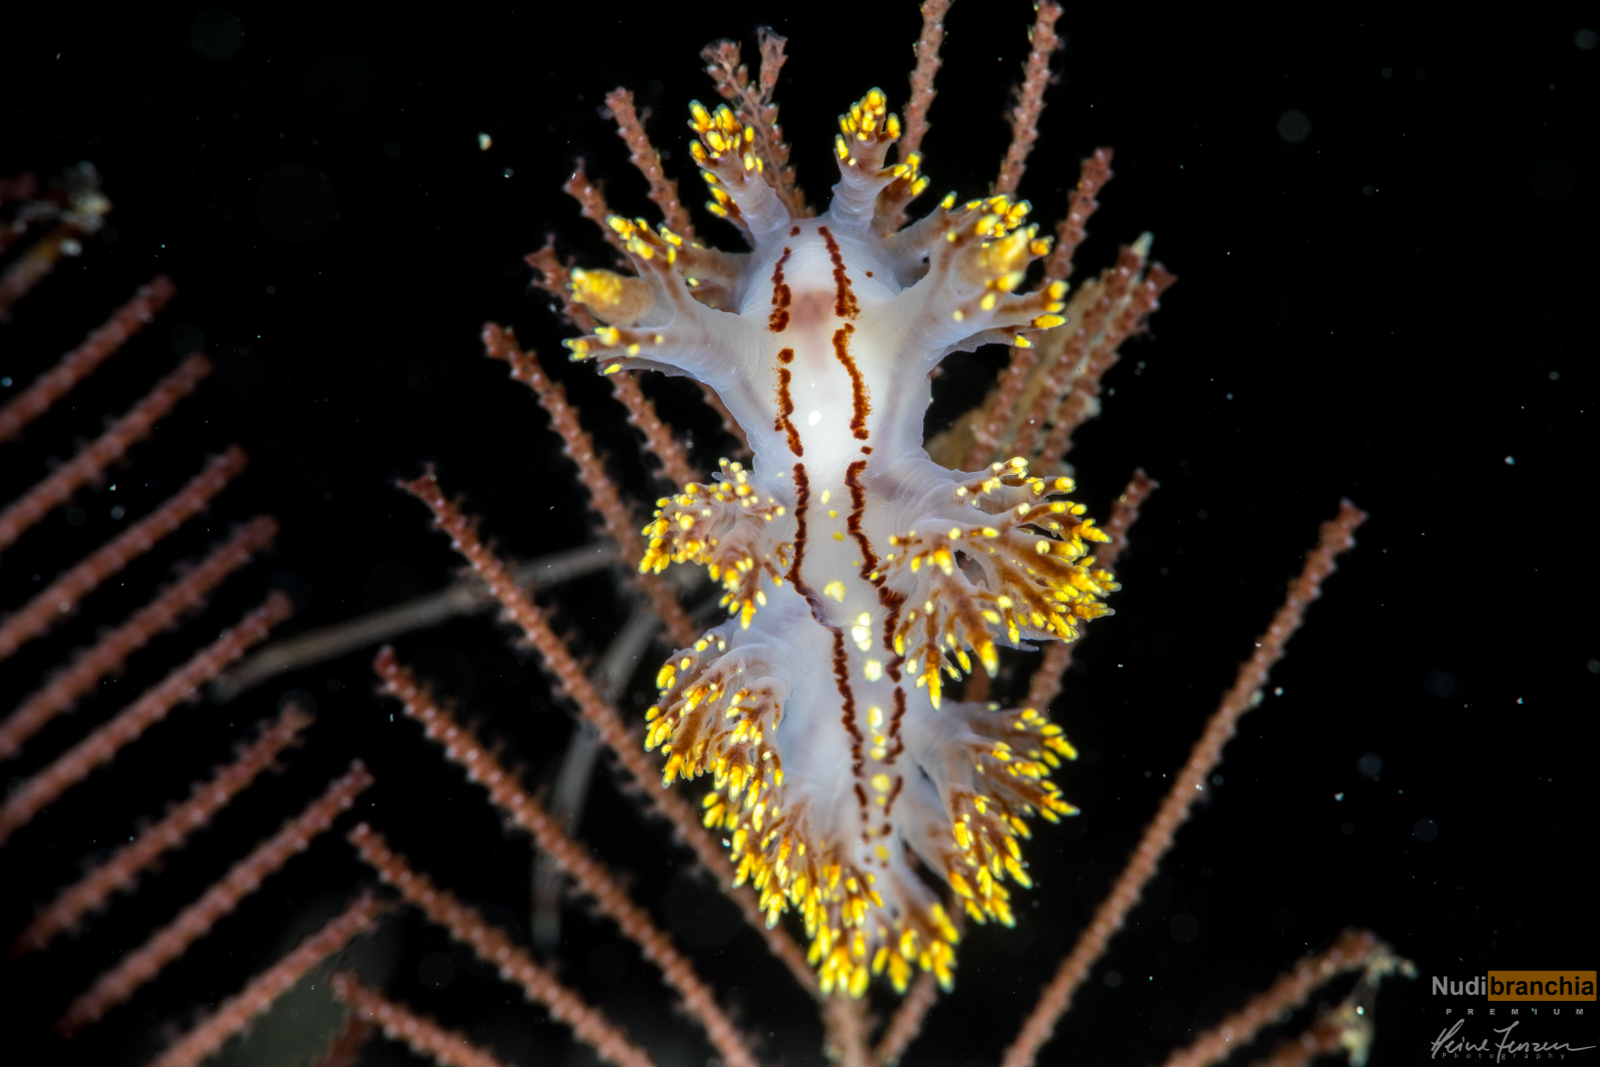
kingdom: Animalia
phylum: Mollusca
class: Gastropoda
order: Nudibranchia
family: Dendronotidae
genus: Dendronotus
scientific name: Dendronotus yrjargul
